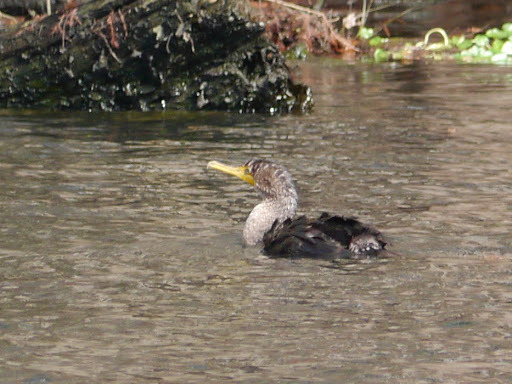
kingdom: Animalia
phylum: Chordata
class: Aves
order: Suliformes
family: Phalacrocoracidae
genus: Phalacrocorax
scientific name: Phalacrocorax auritus
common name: Double-crested cormorant
